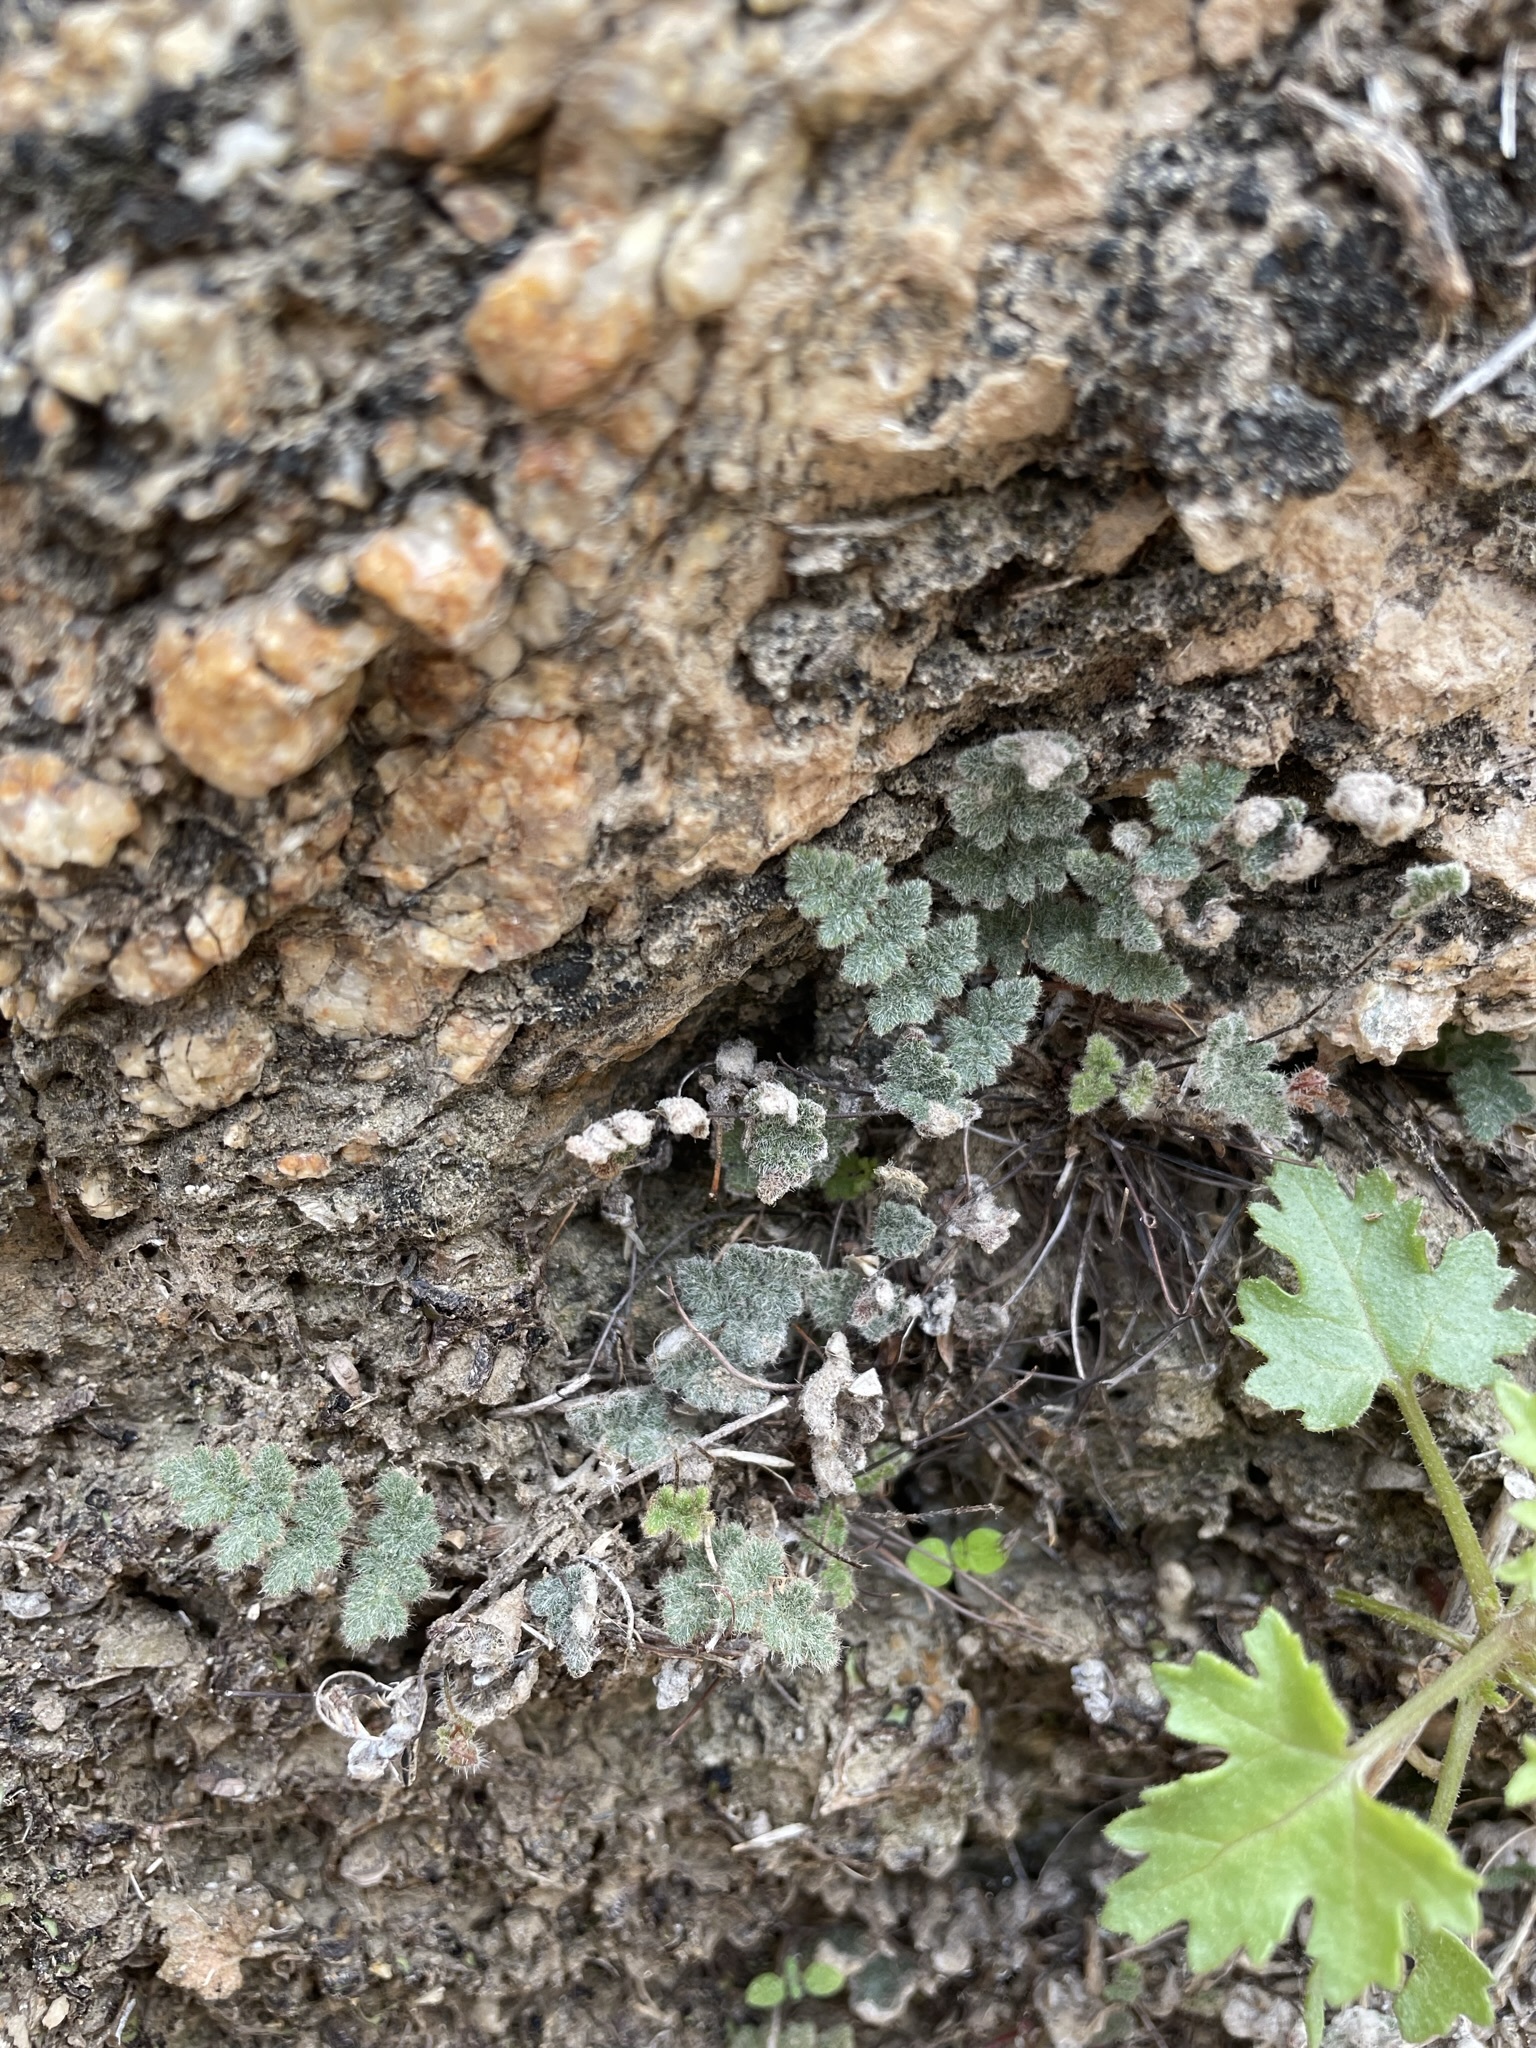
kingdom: Plantae
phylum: Tracheophyta
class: Polypodiopsida
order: Polypodiales
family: Pteridaceae
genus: Myriopteris
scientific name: Myriopteris parryi
